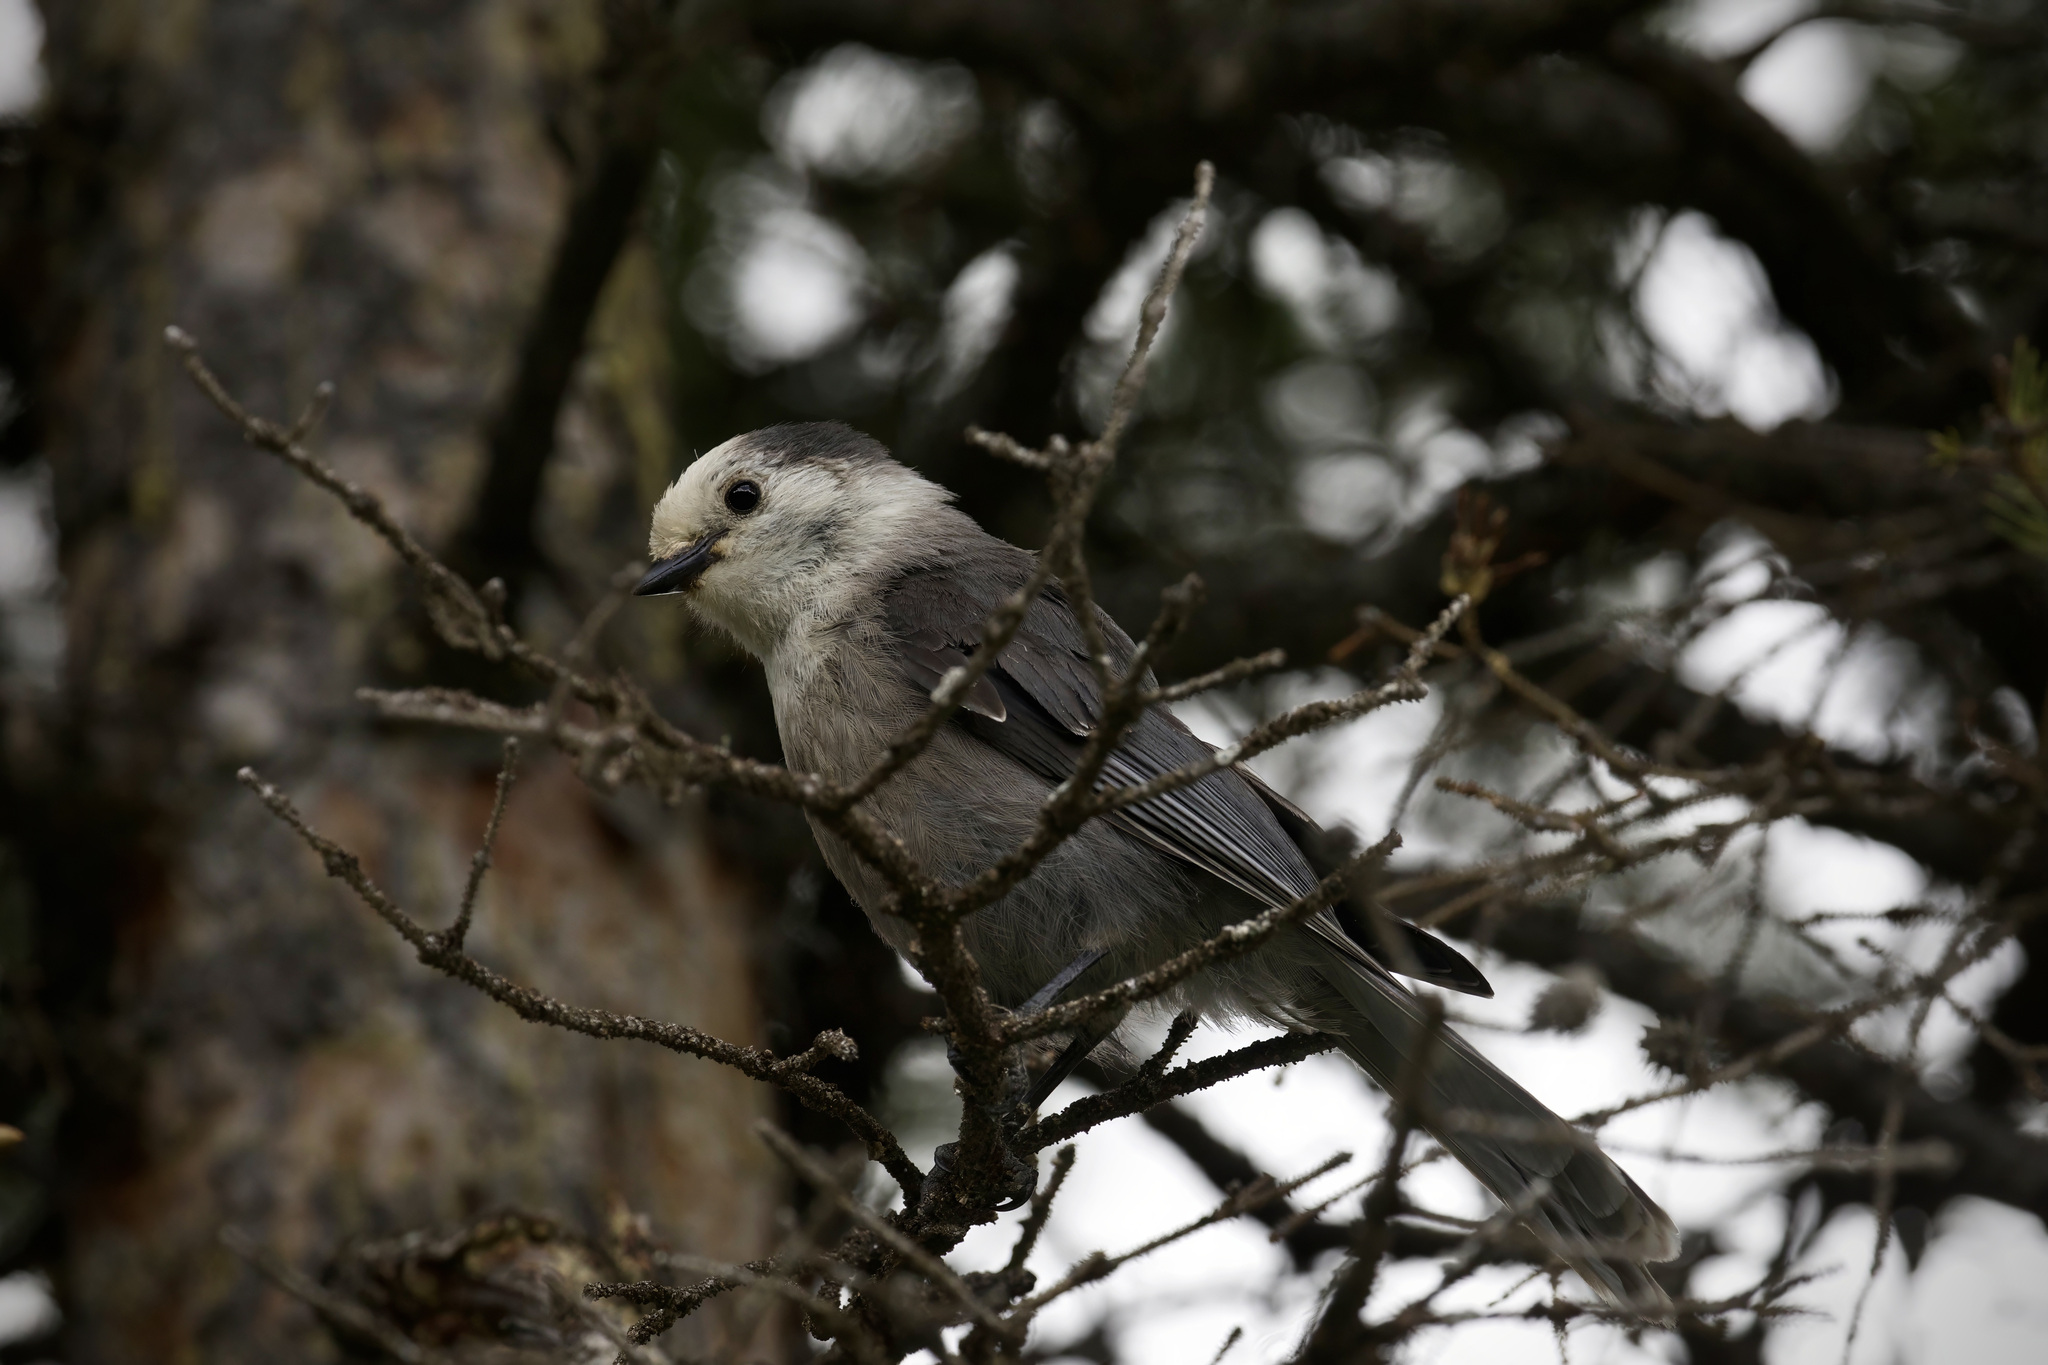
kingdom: Animalia
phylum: Chordata
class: Aves
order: Passeriformes
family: Corvidae
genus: Perisoreus
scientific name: Perisoreus canadensis
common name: Gray jay
